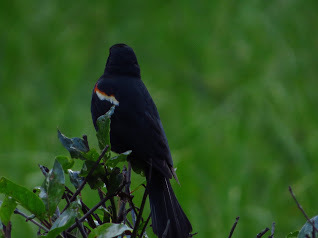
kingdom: Animalia
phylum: Chordata
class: Aves
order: Passeriformes
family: Icteridae
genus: Agelaius
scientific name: Agelaius phoeniceus
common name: Red-winged blackbird
